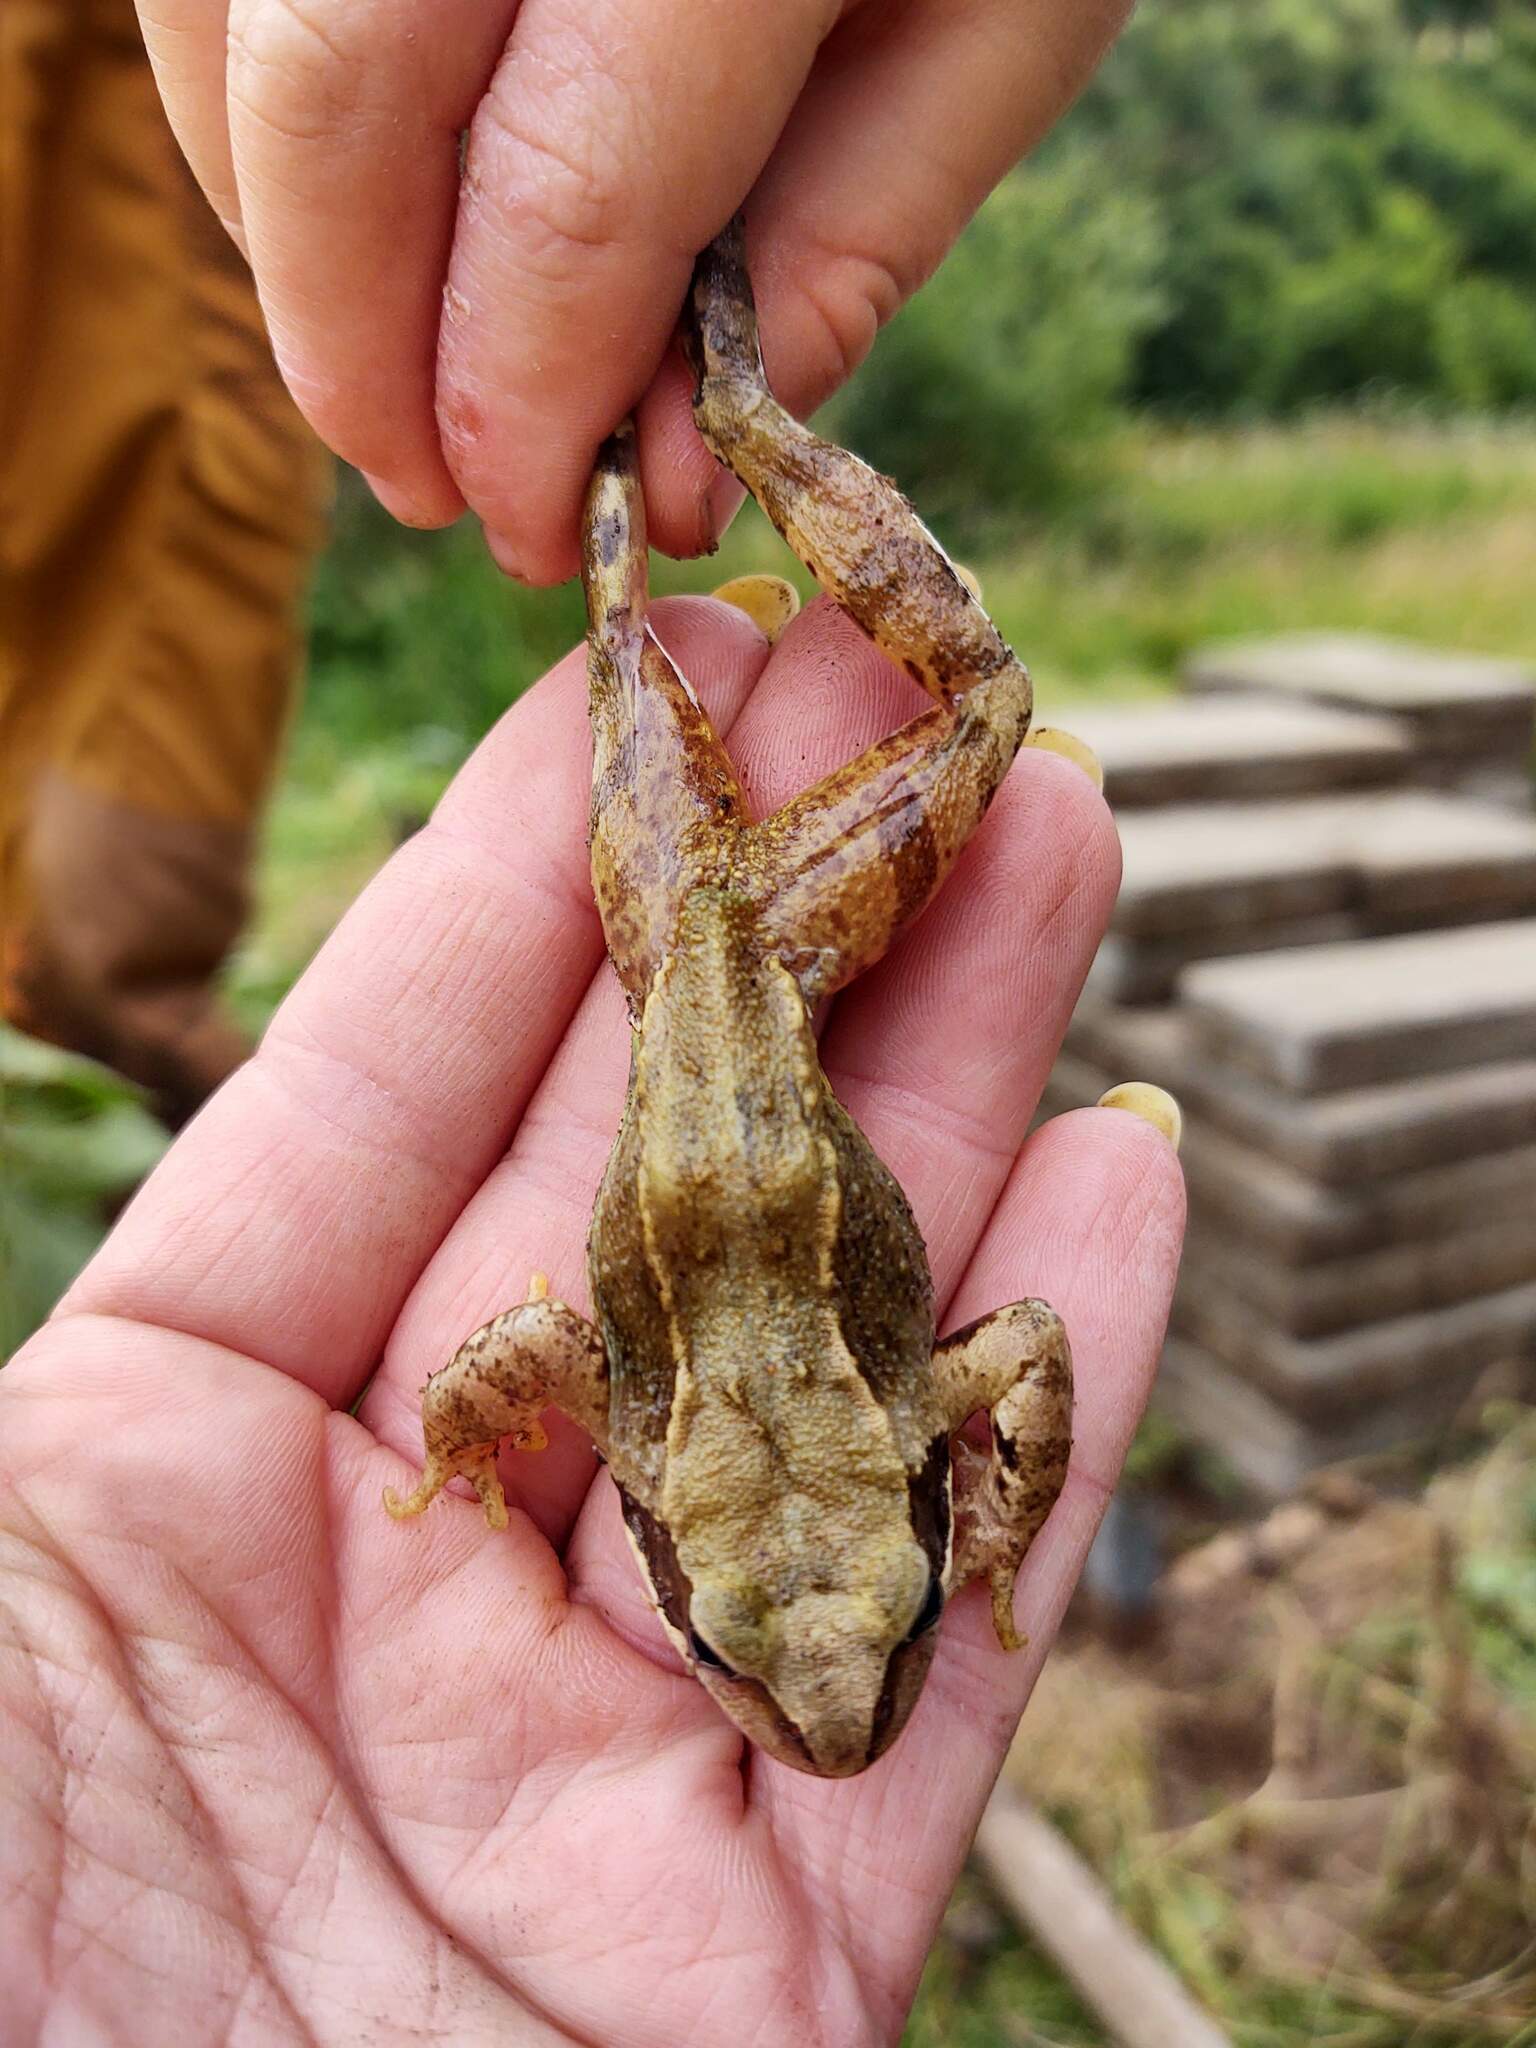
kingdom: Animalia
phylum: Chordata
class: Amphibia
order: Anura
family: Ranidae
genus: Rana
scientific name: Rana temporaria
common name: Common frog
